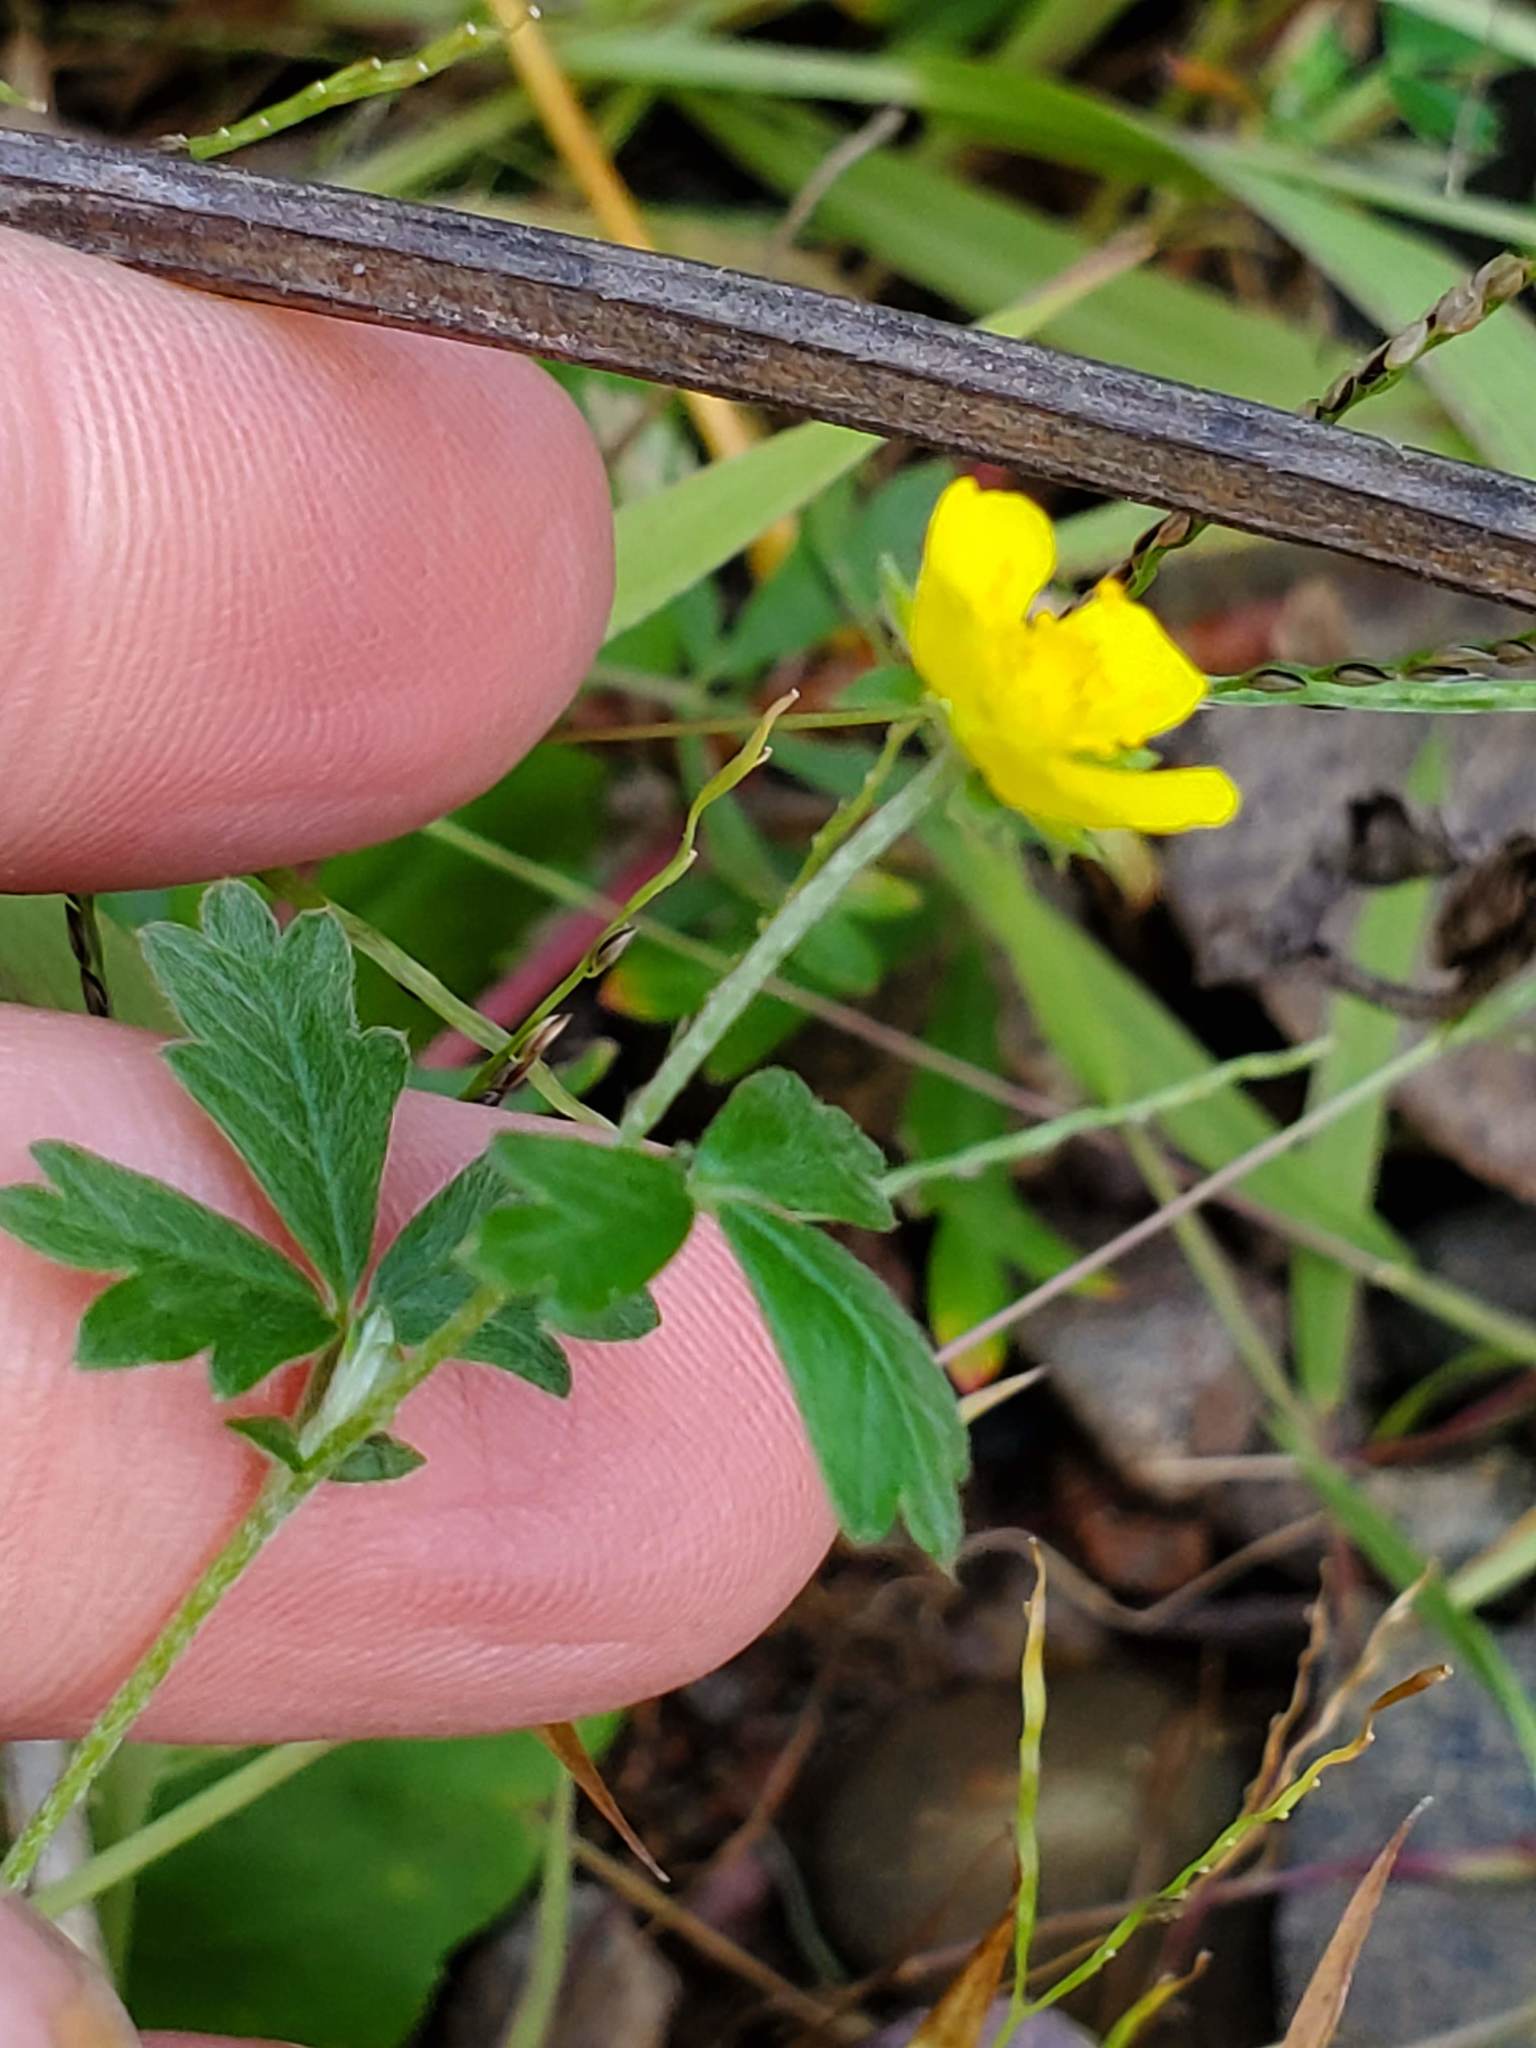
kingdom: Plantae
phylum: Tracheophyta
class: Magnoliopsida
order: Rosales
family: Rosaceae
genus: Potentilla
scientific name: Potentilla argentea
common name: Hoary cinquefoil
